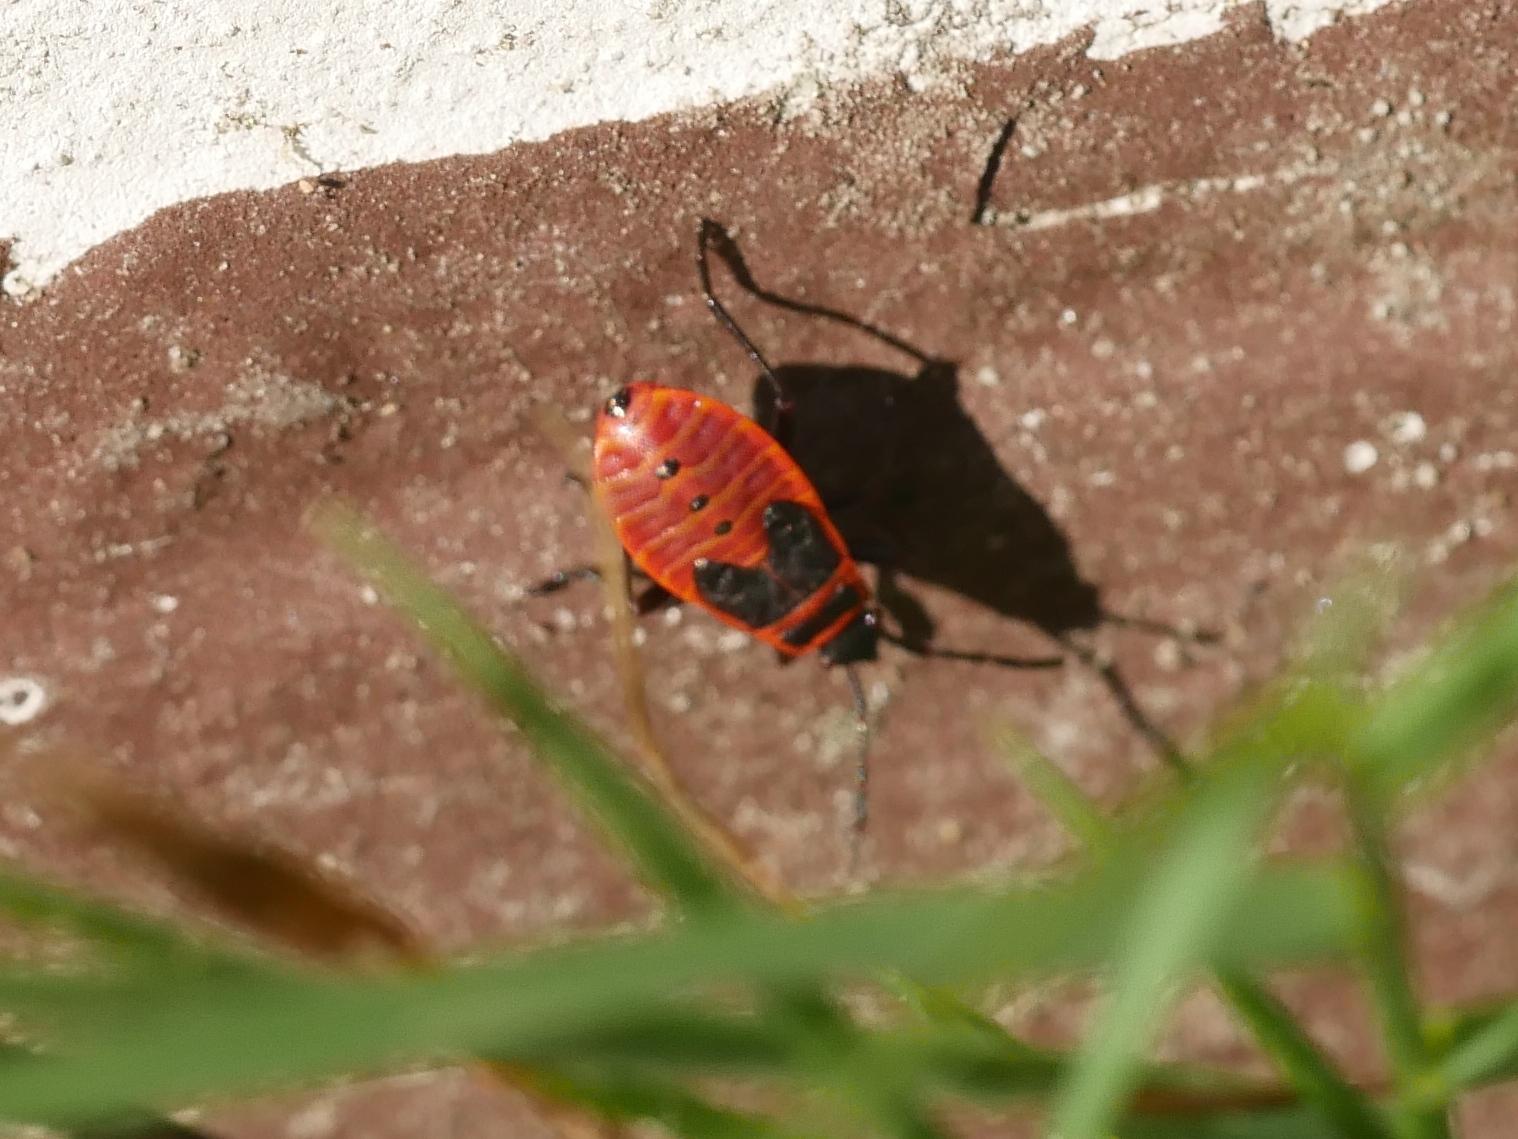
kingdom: Animalia
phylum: Arthropoda
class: Insecta
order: Hemiptera
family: Pyrrhocoridae
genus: Pyrrhocoris
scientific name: Pyrrhocoris apterus
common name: Firebug
